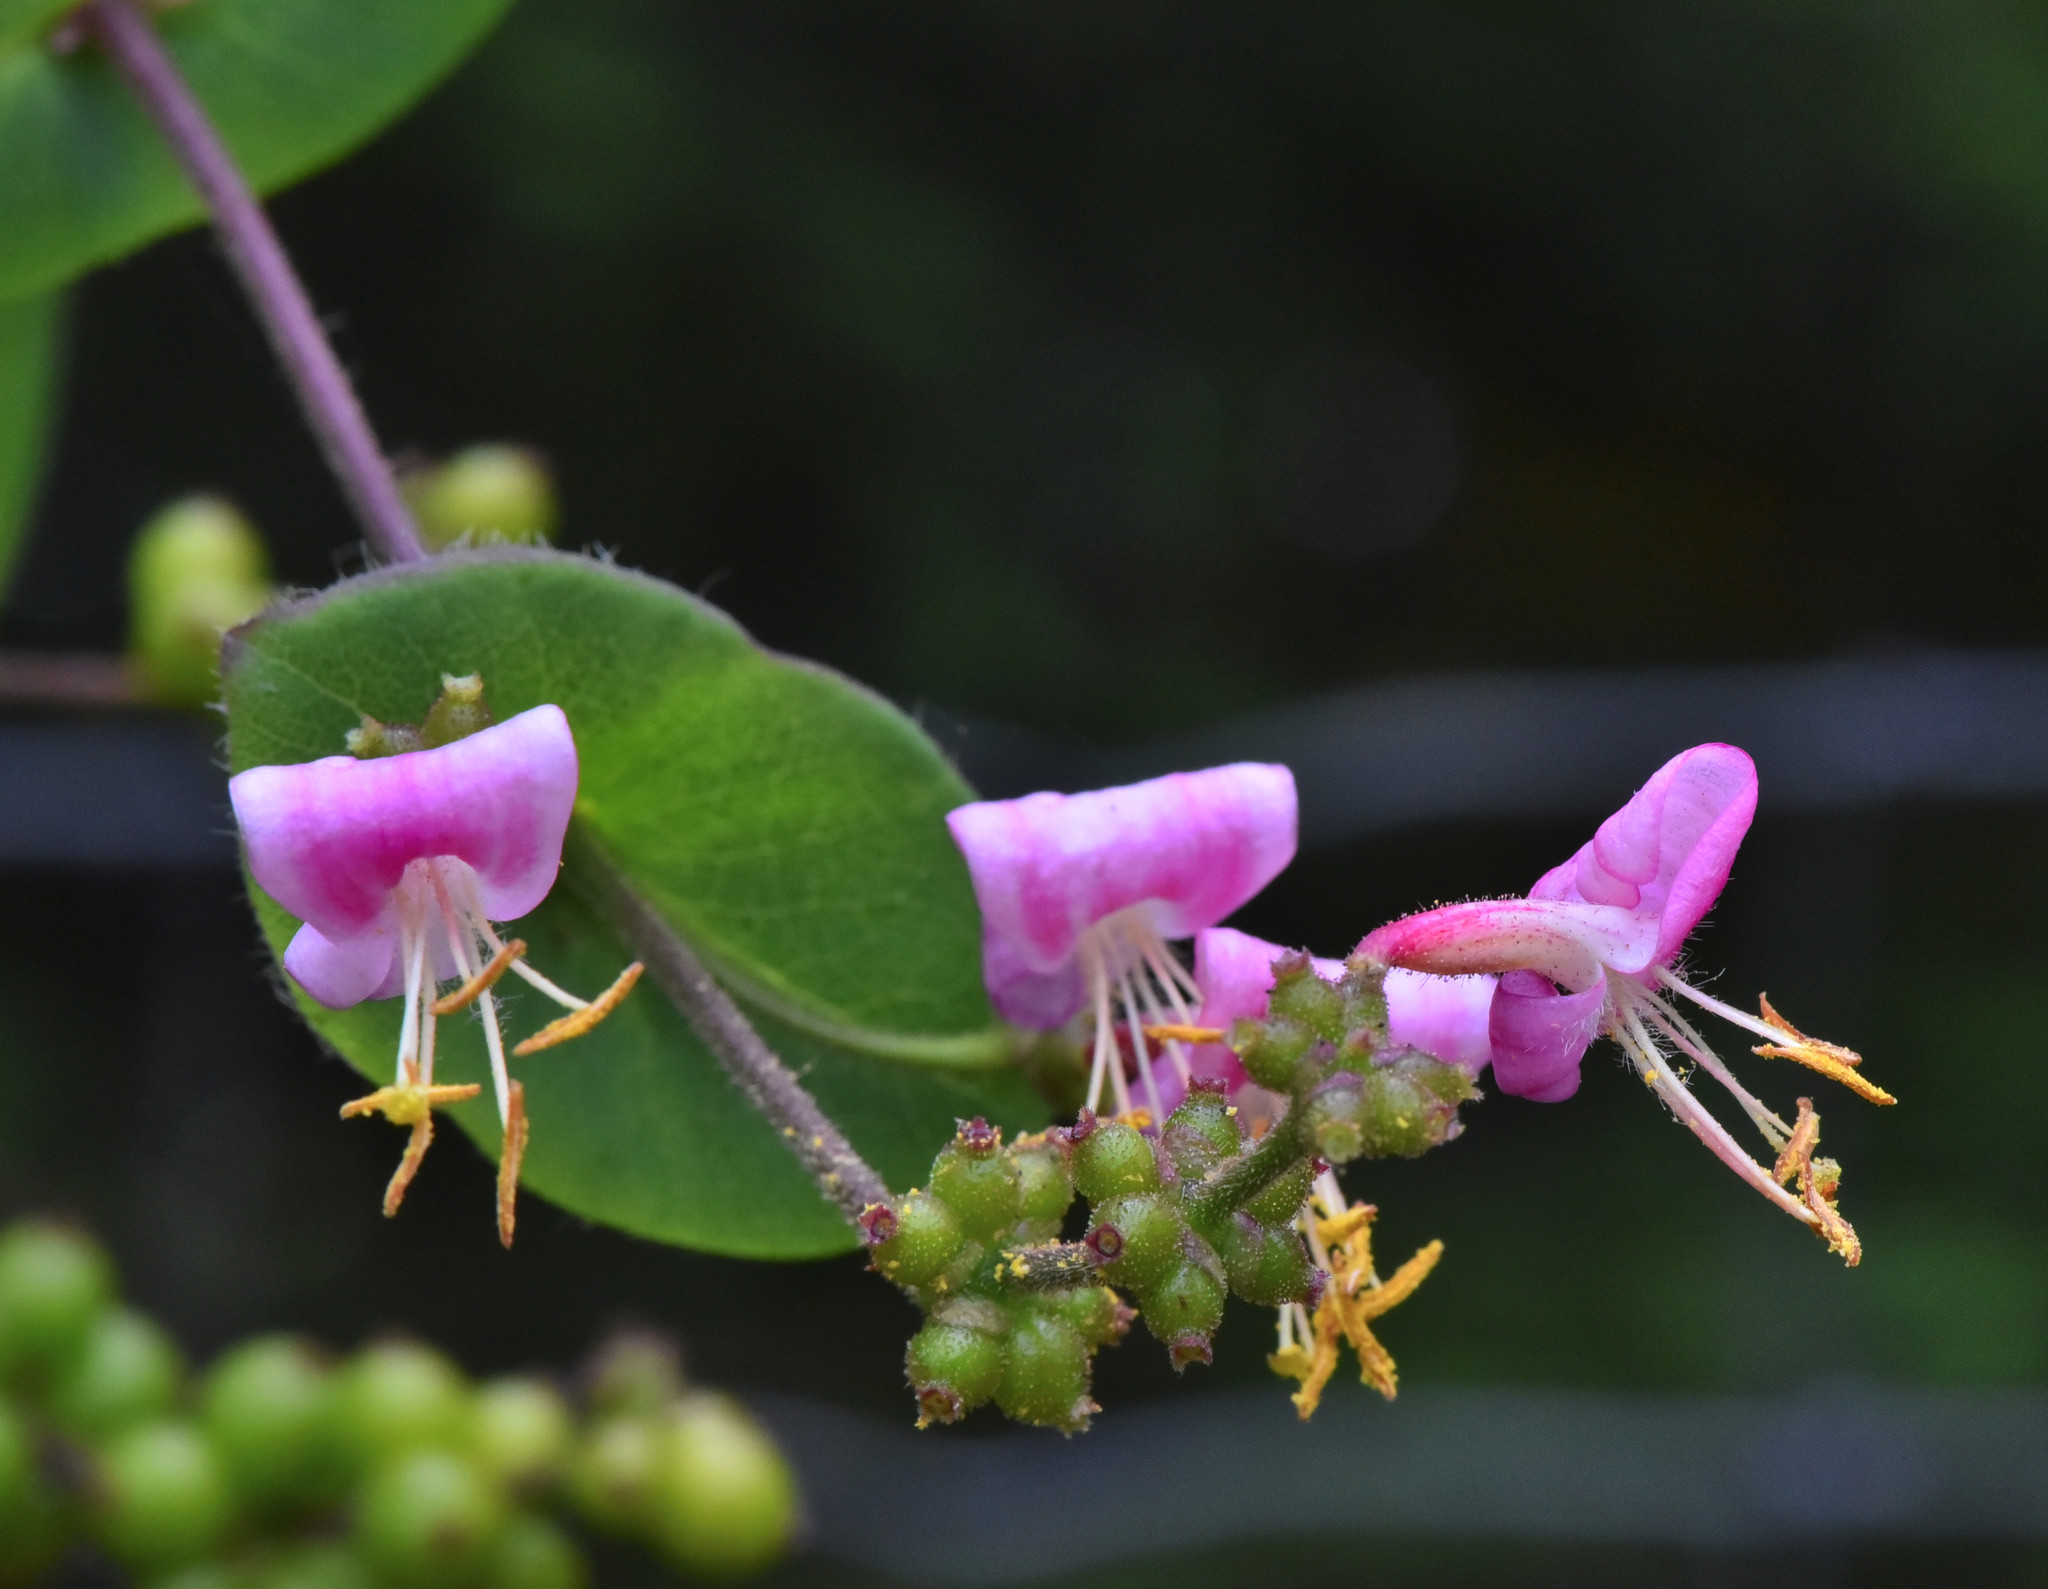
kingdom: Plantae
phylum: Tracheophyta
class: Magnoliopsida
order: Dipsacales
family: Caprifoliaceae
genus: Lonicera
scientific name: Lonicera hispidula
